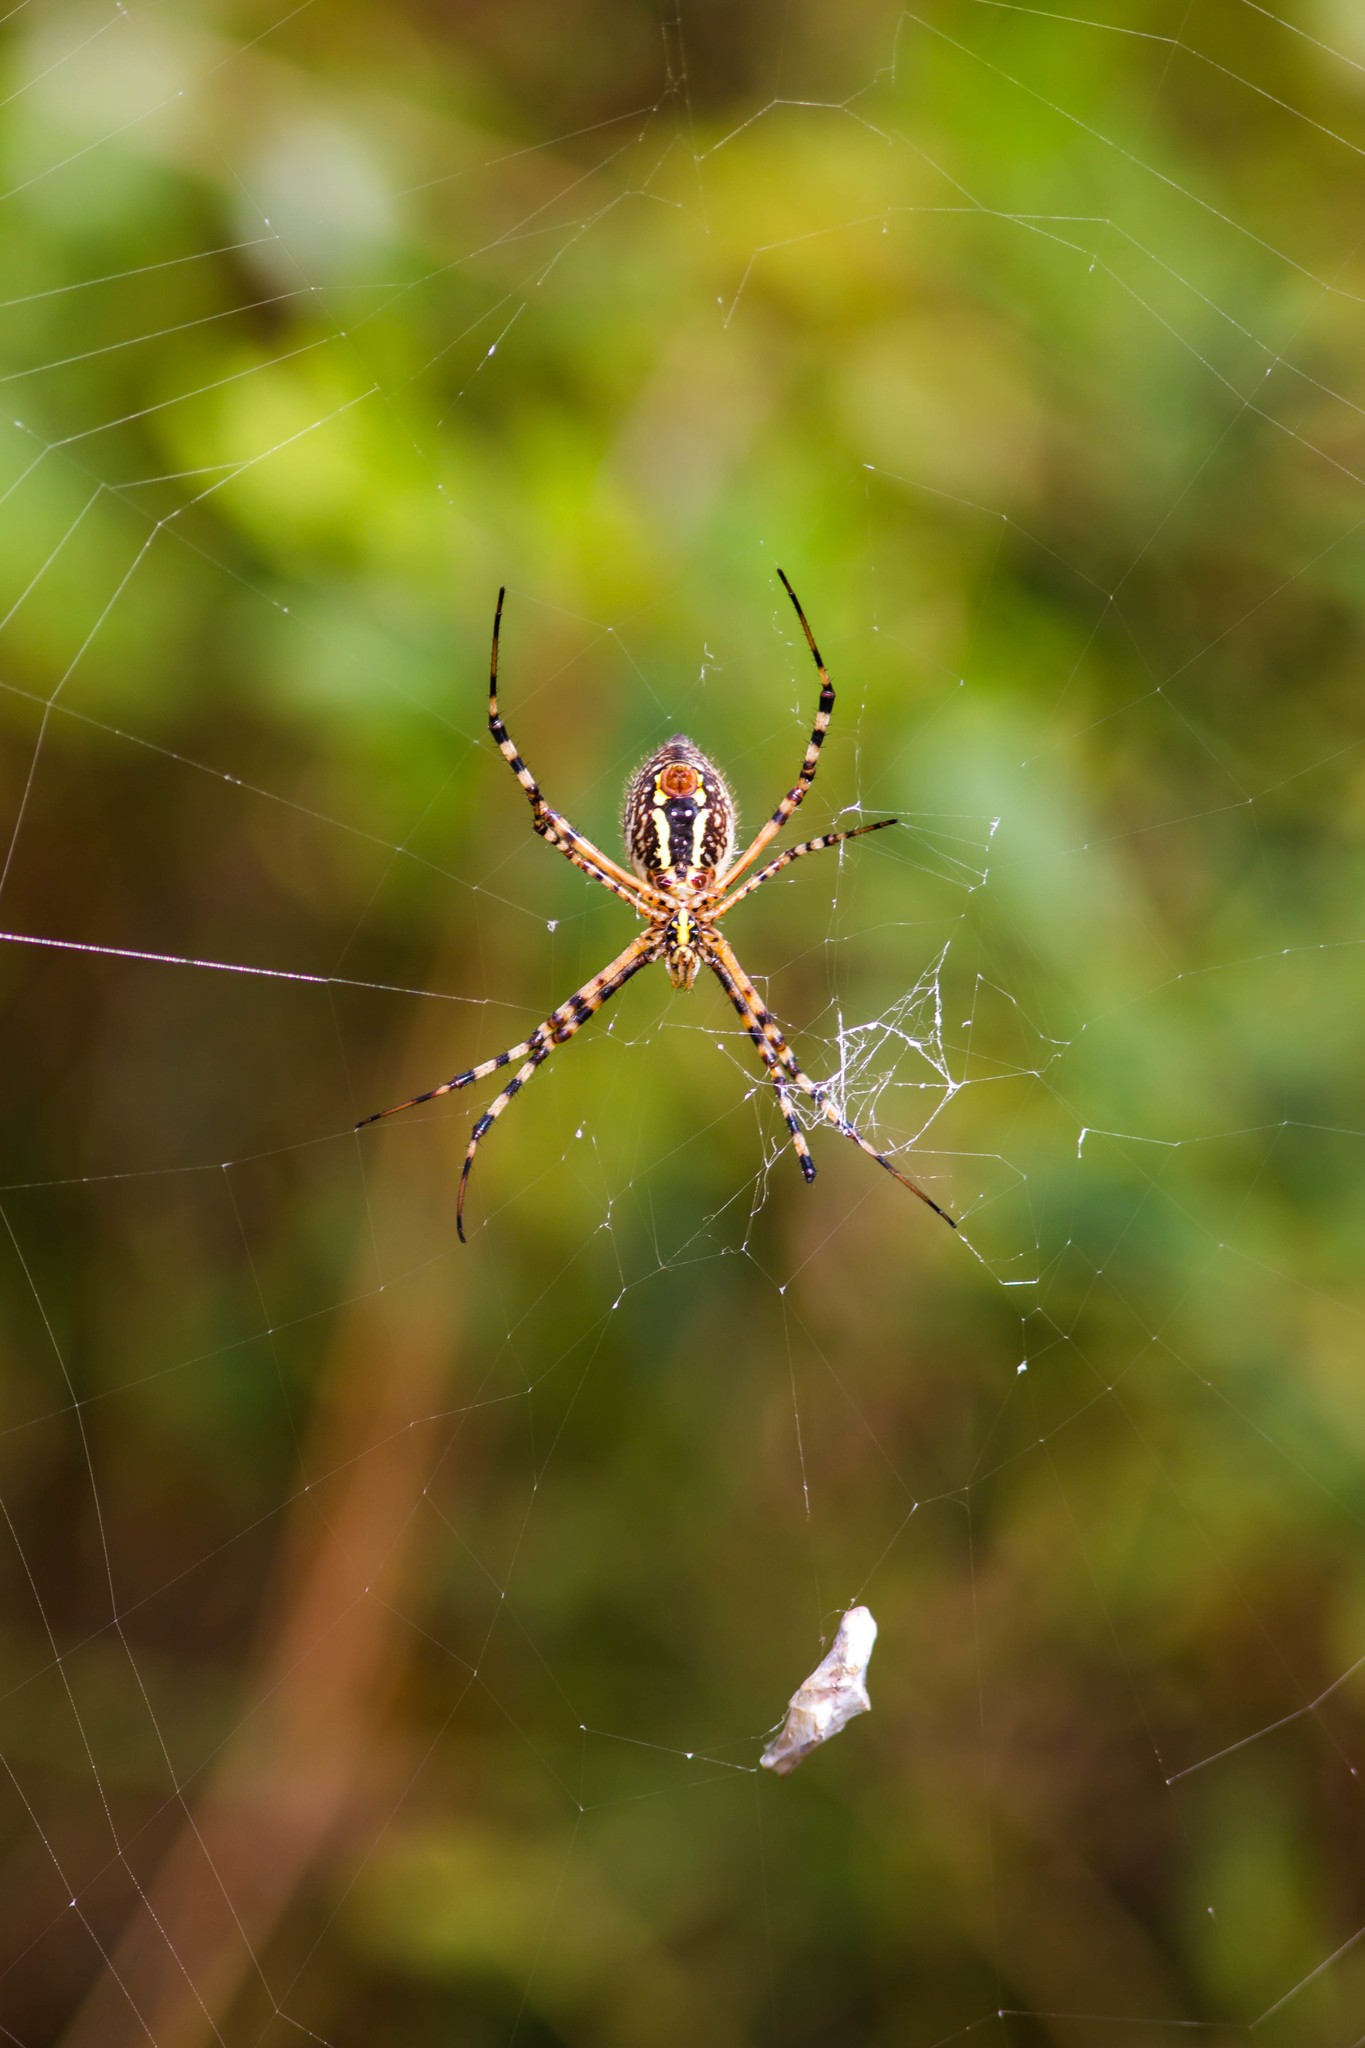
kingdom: Animalia
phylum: Arthropoda
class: Arachnida
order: Araneae
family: Araneidae
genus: Argiope
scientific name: Argiope trifasciata
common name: Banded garden spider
